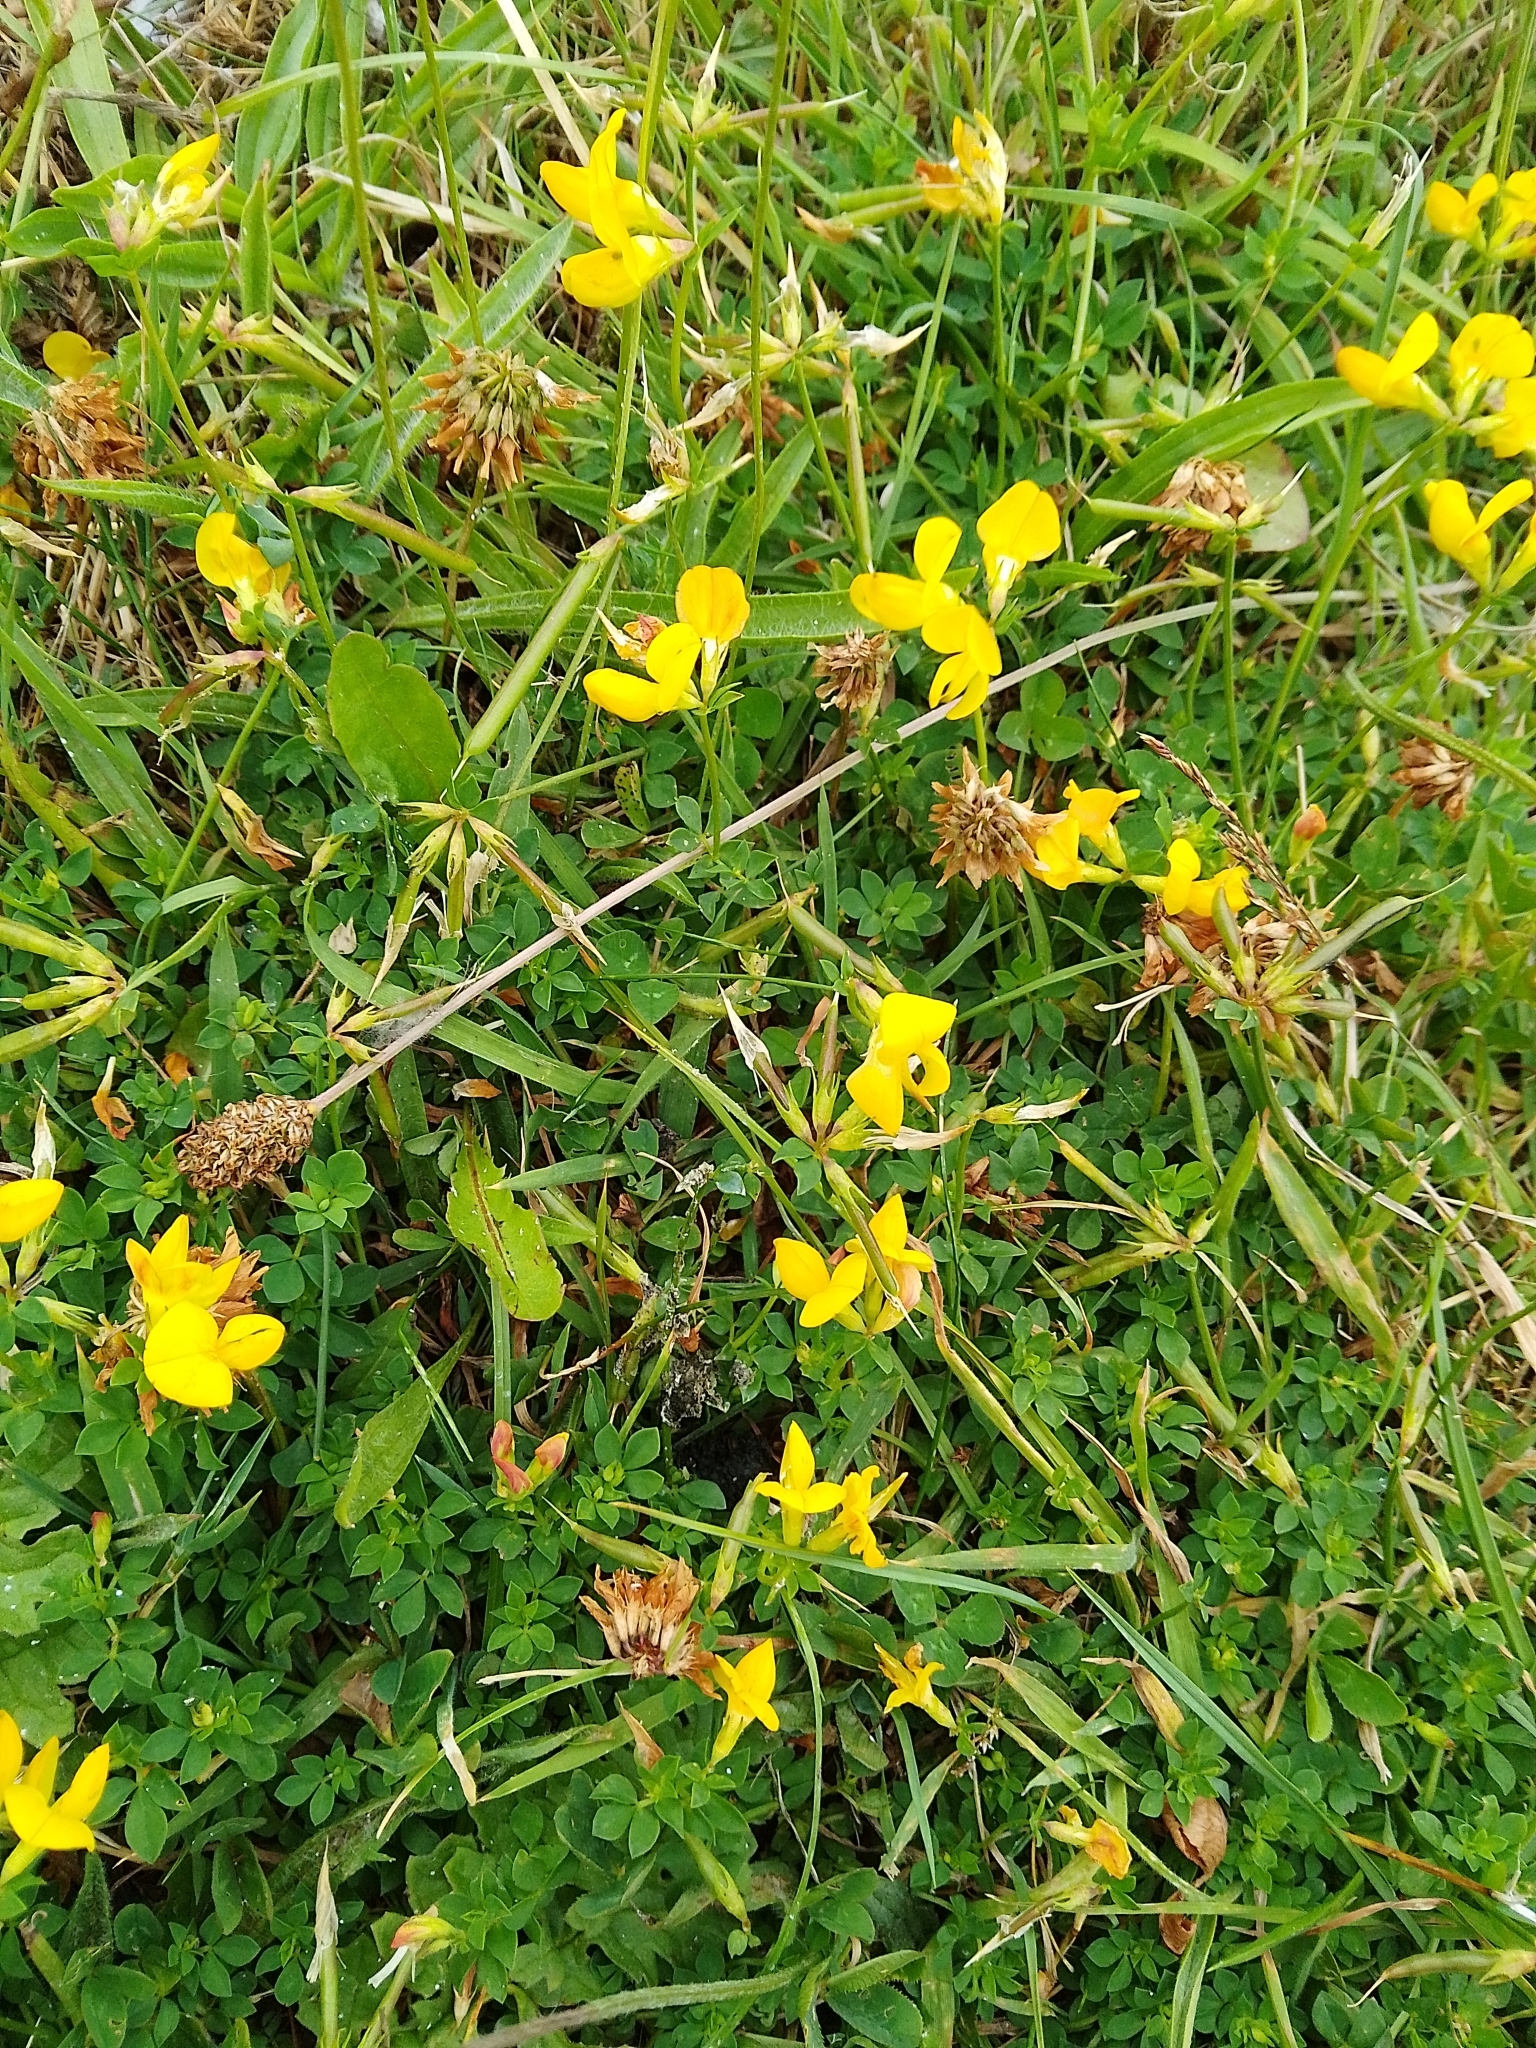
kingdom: Plantae
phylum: Tracheophyta
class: Magnoliopsida
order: Fabales
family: Fabaceae
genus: Lotus
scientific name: Lotus corniculatus
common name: Common bird's-foot-trefoil
